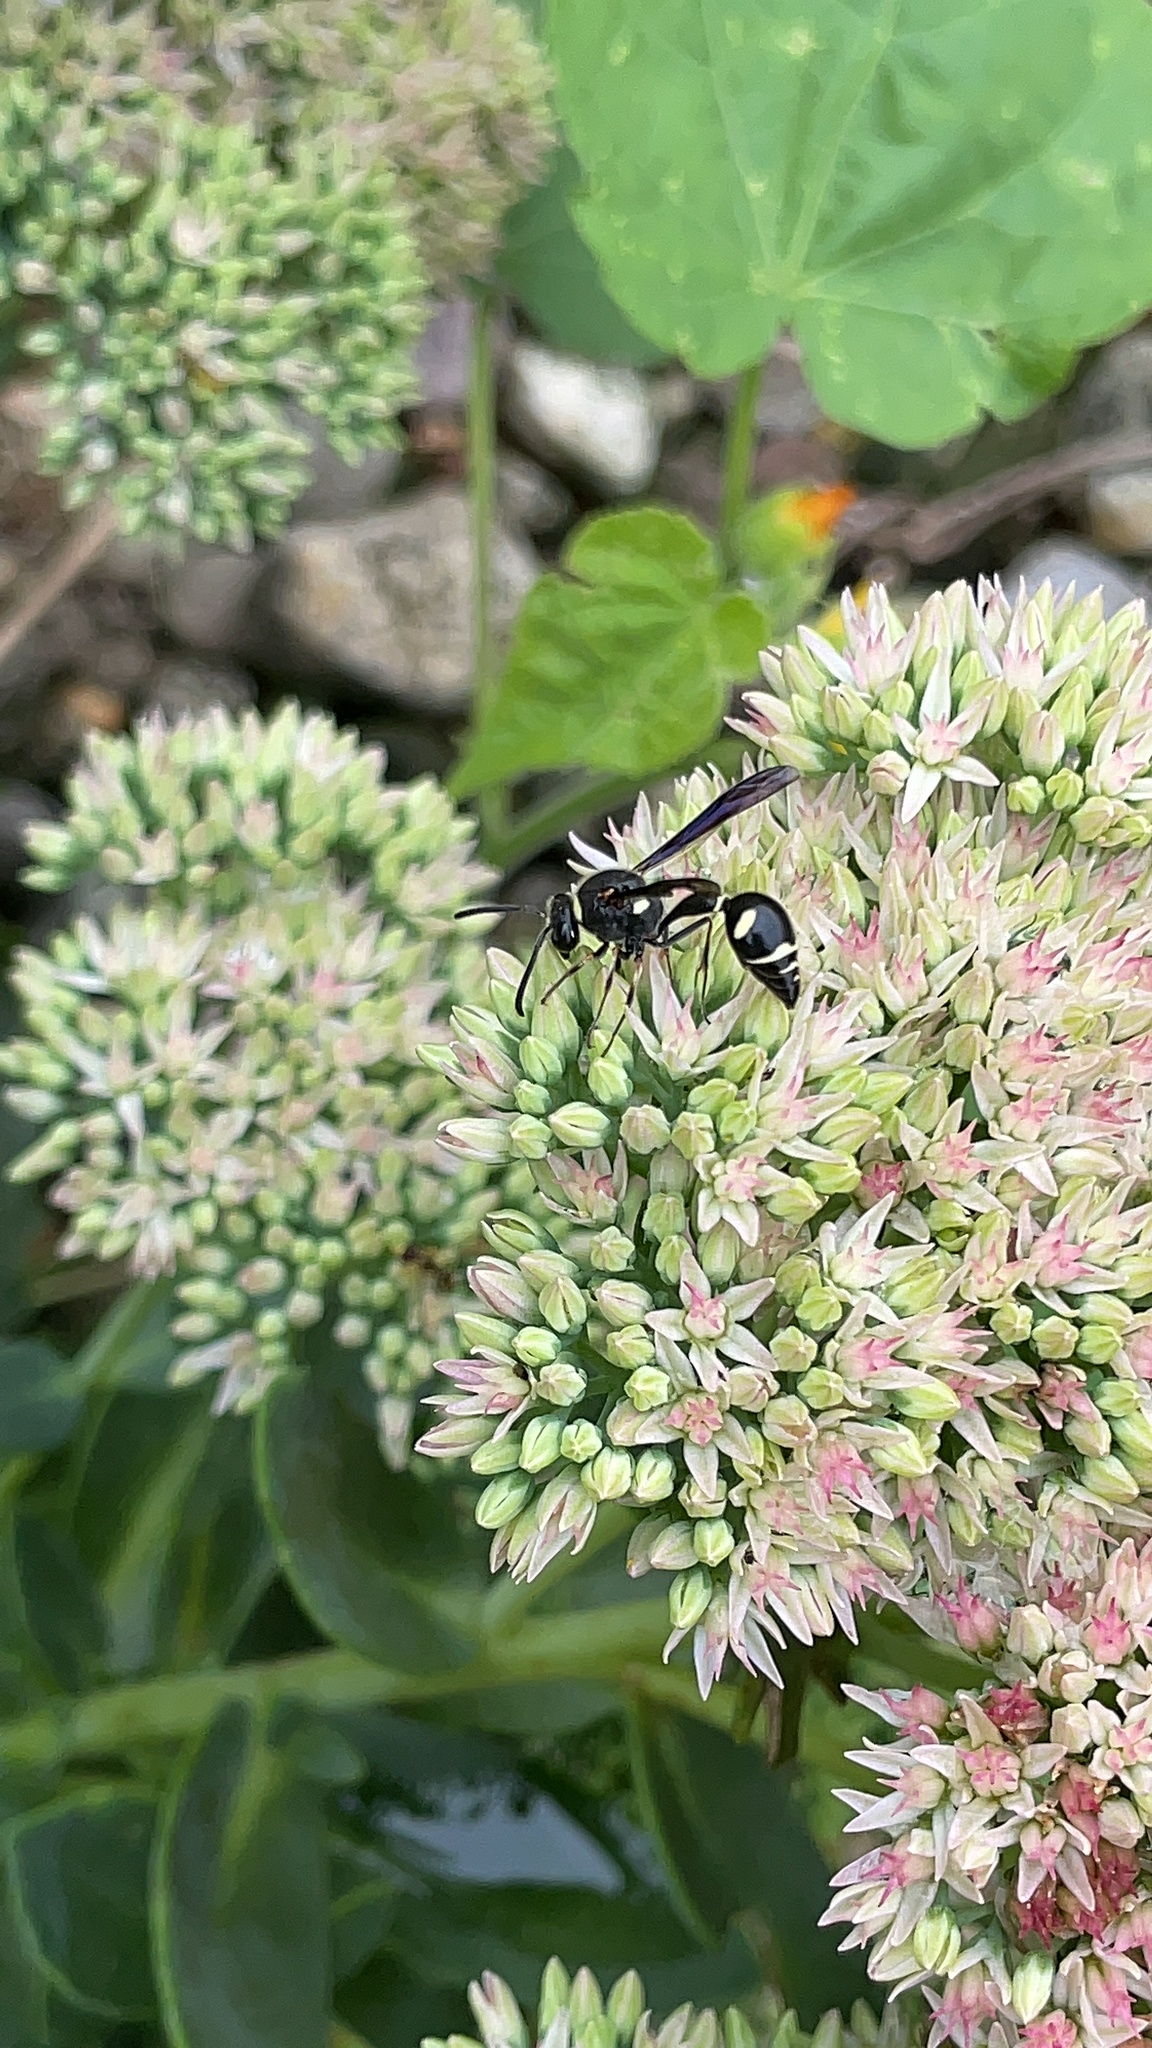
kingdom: Animalia
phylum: Arthropoda
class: Insecta
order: Hymenoptera
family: Vespidae
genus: Eumenes
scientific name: Eumenes fraternus
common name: Fraternal potter wasp
